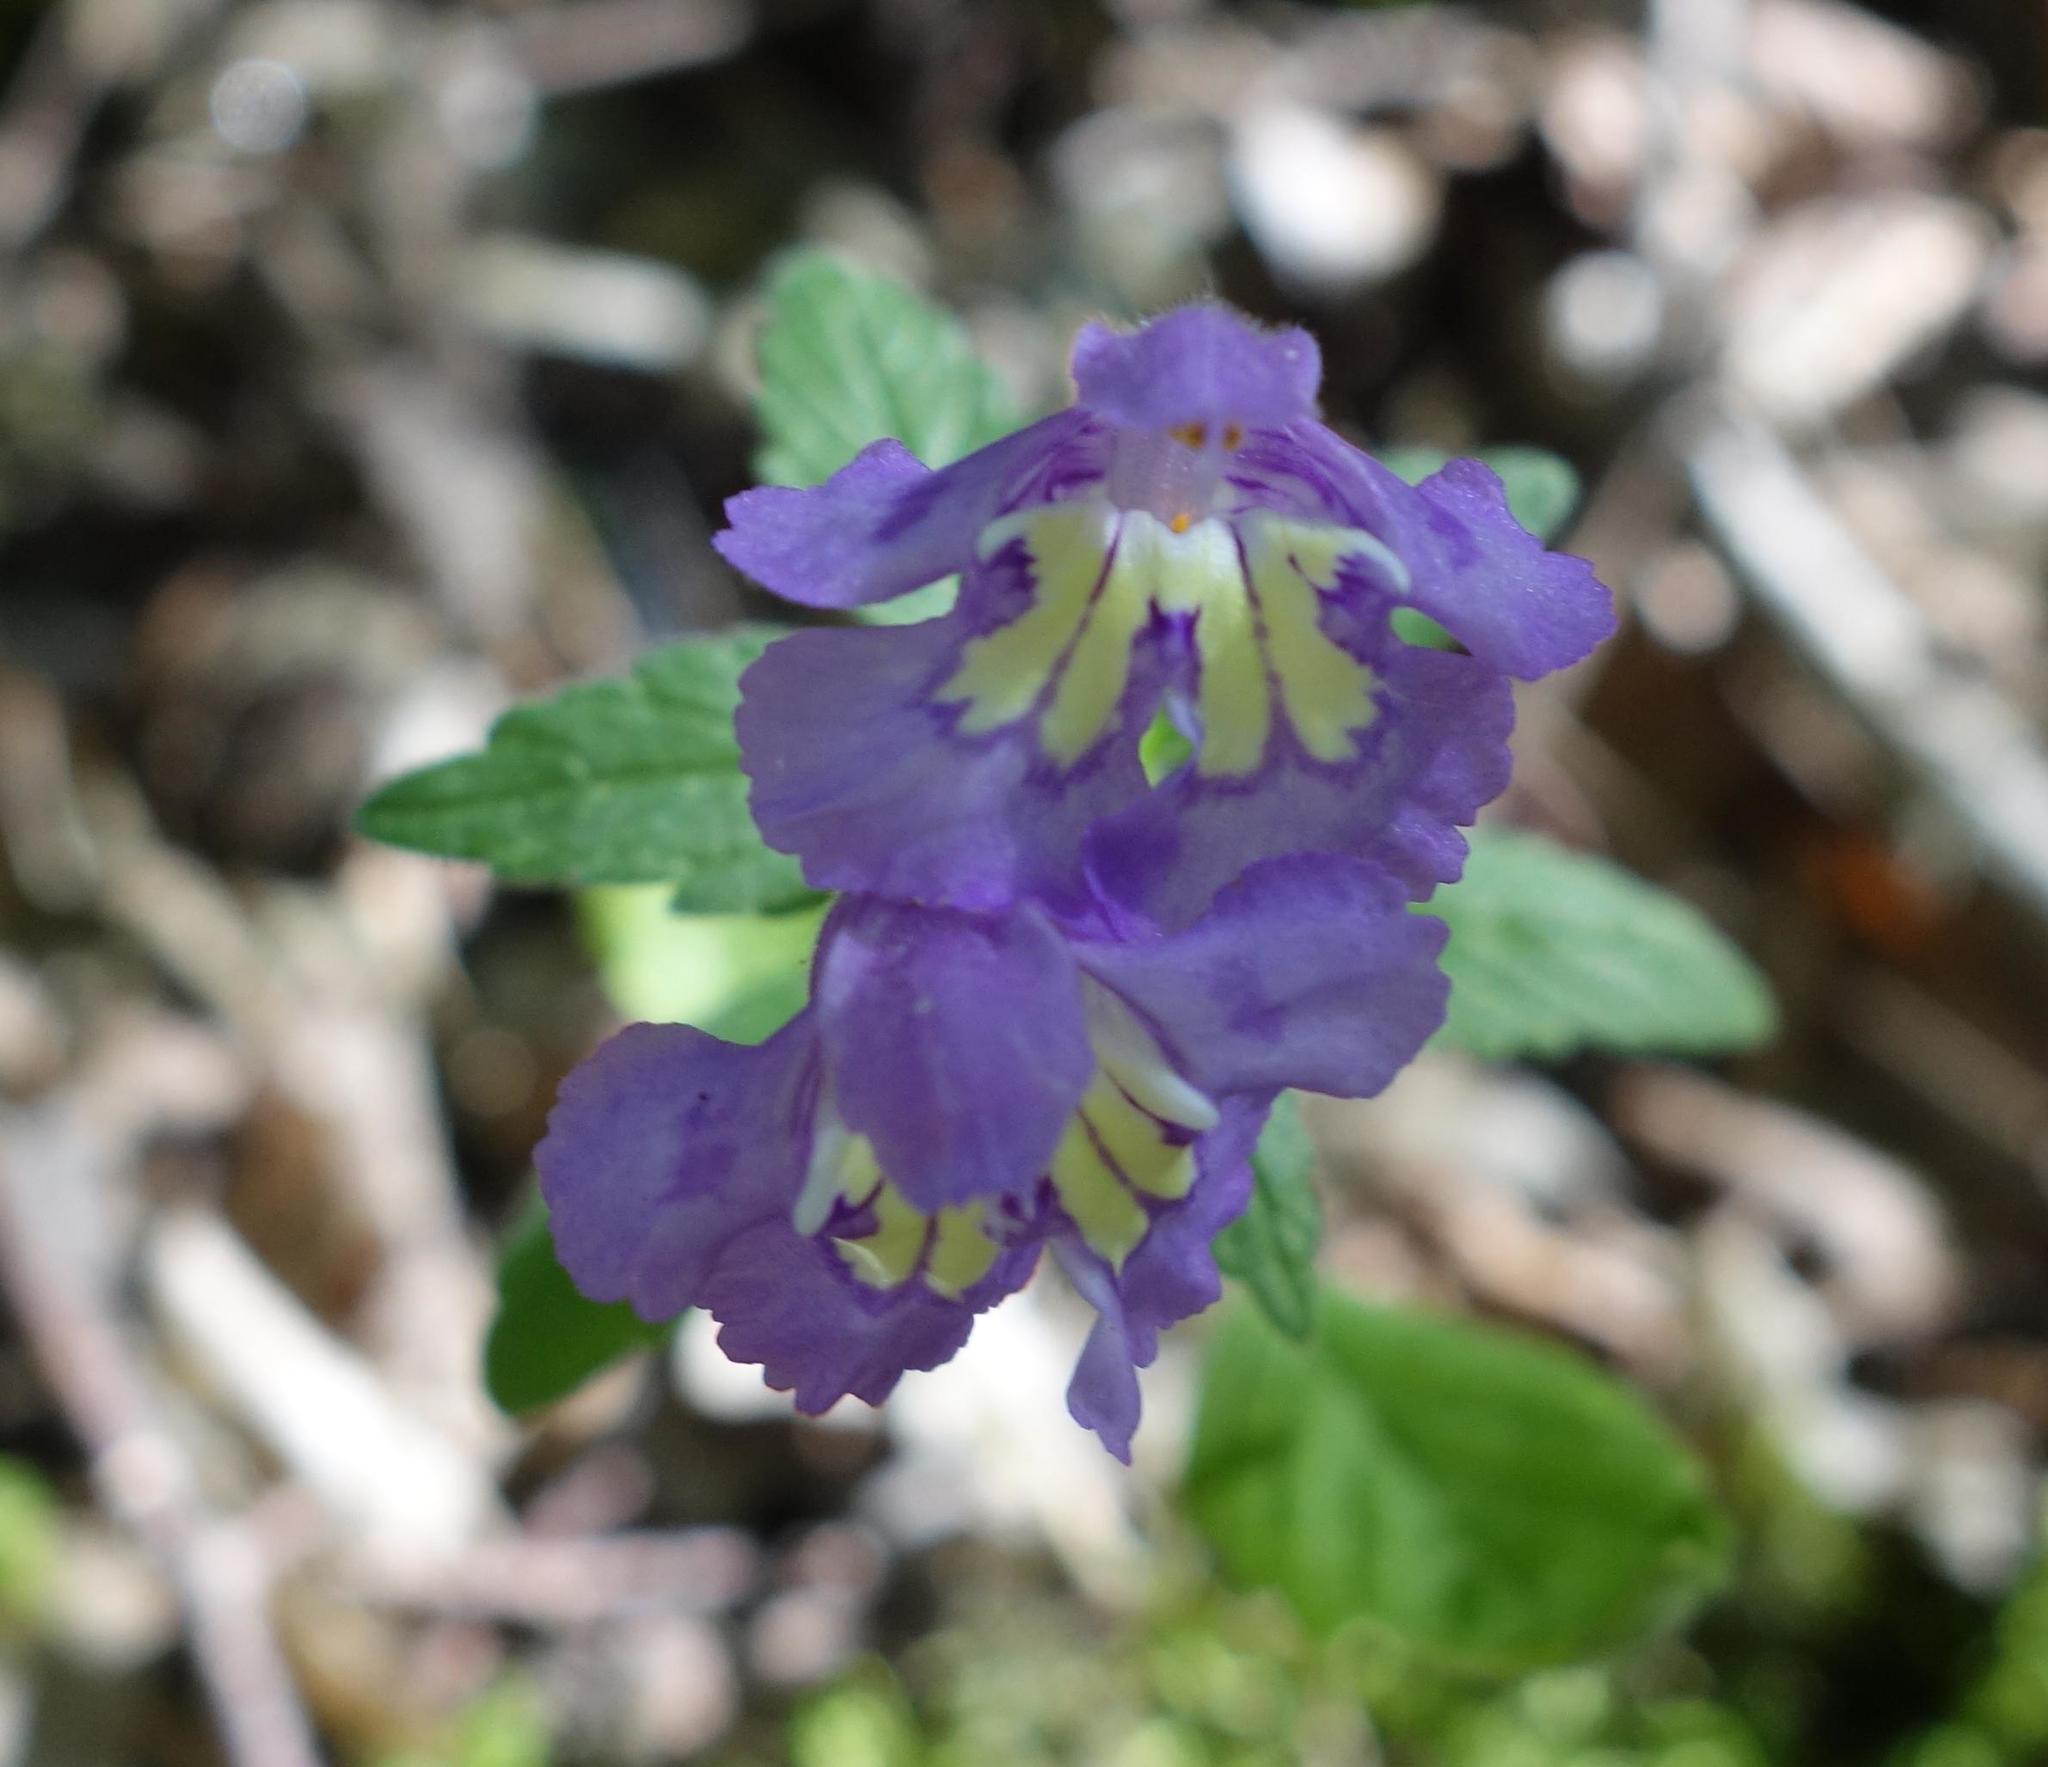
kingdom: Plantae
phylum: Tracheophyta
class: Magnoliopsida
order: Lamiales
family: Lamiaceae
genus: Galeopsis
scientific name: Galeopsis segetum
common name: Downy hemp-nettle
